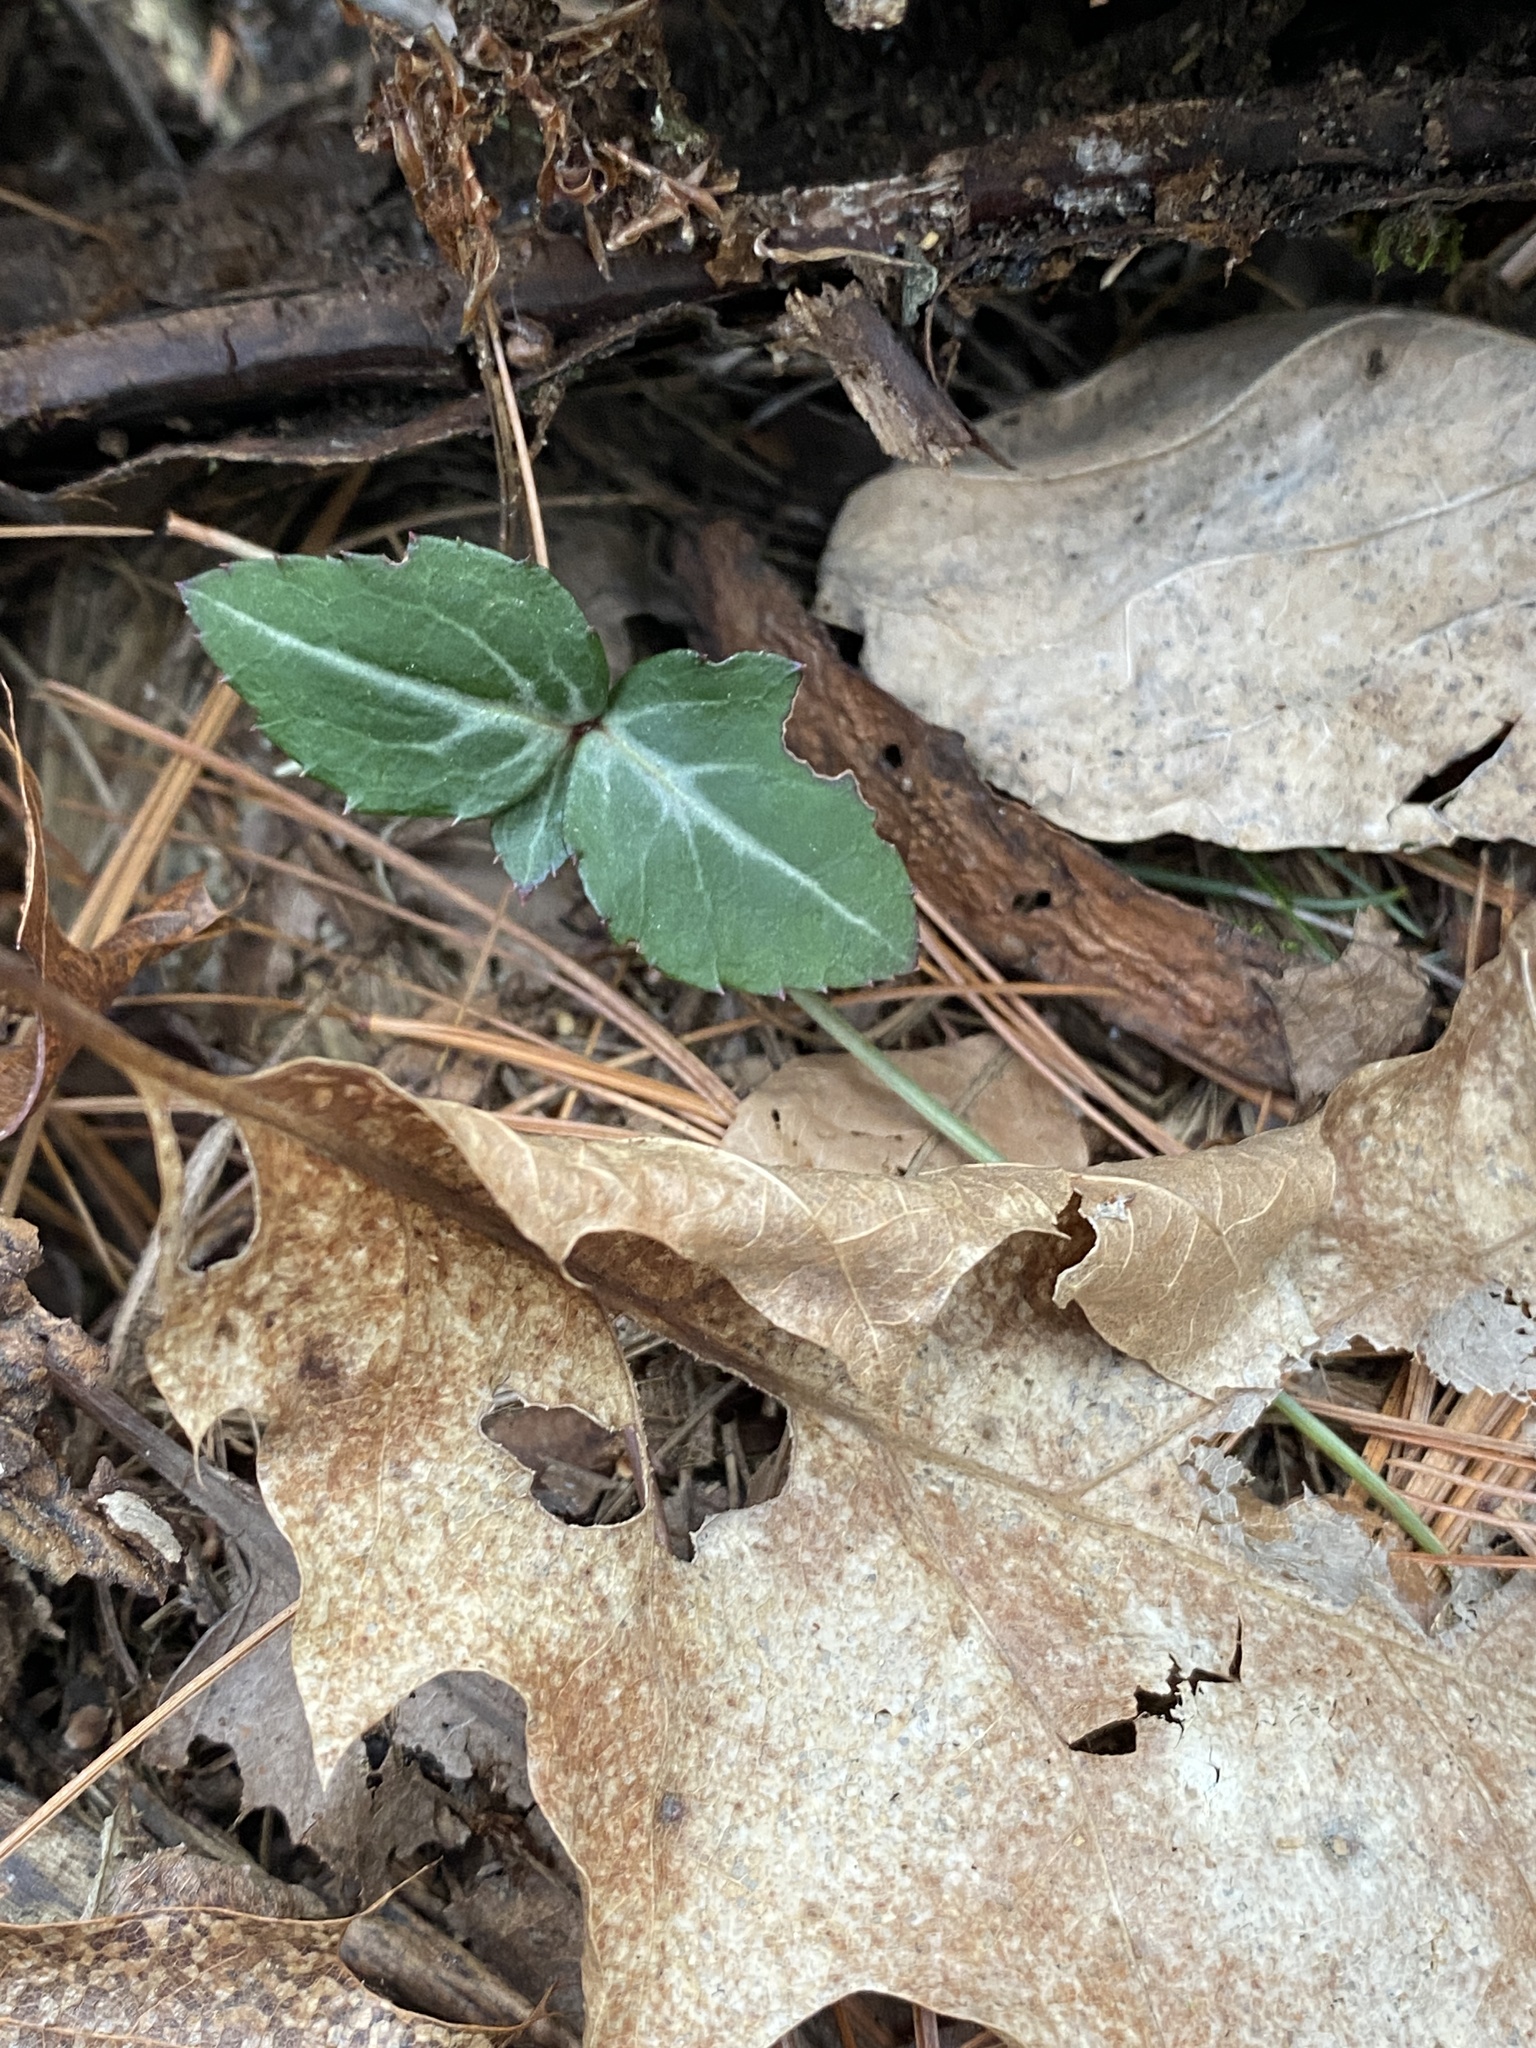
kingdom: Plantae
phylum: Tracheophyta
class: Magnoliopsida
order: Ericales
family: Ericaceae
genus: Chimaphila
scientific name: Chimaphila maculata
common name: Spotted pipsissewa
